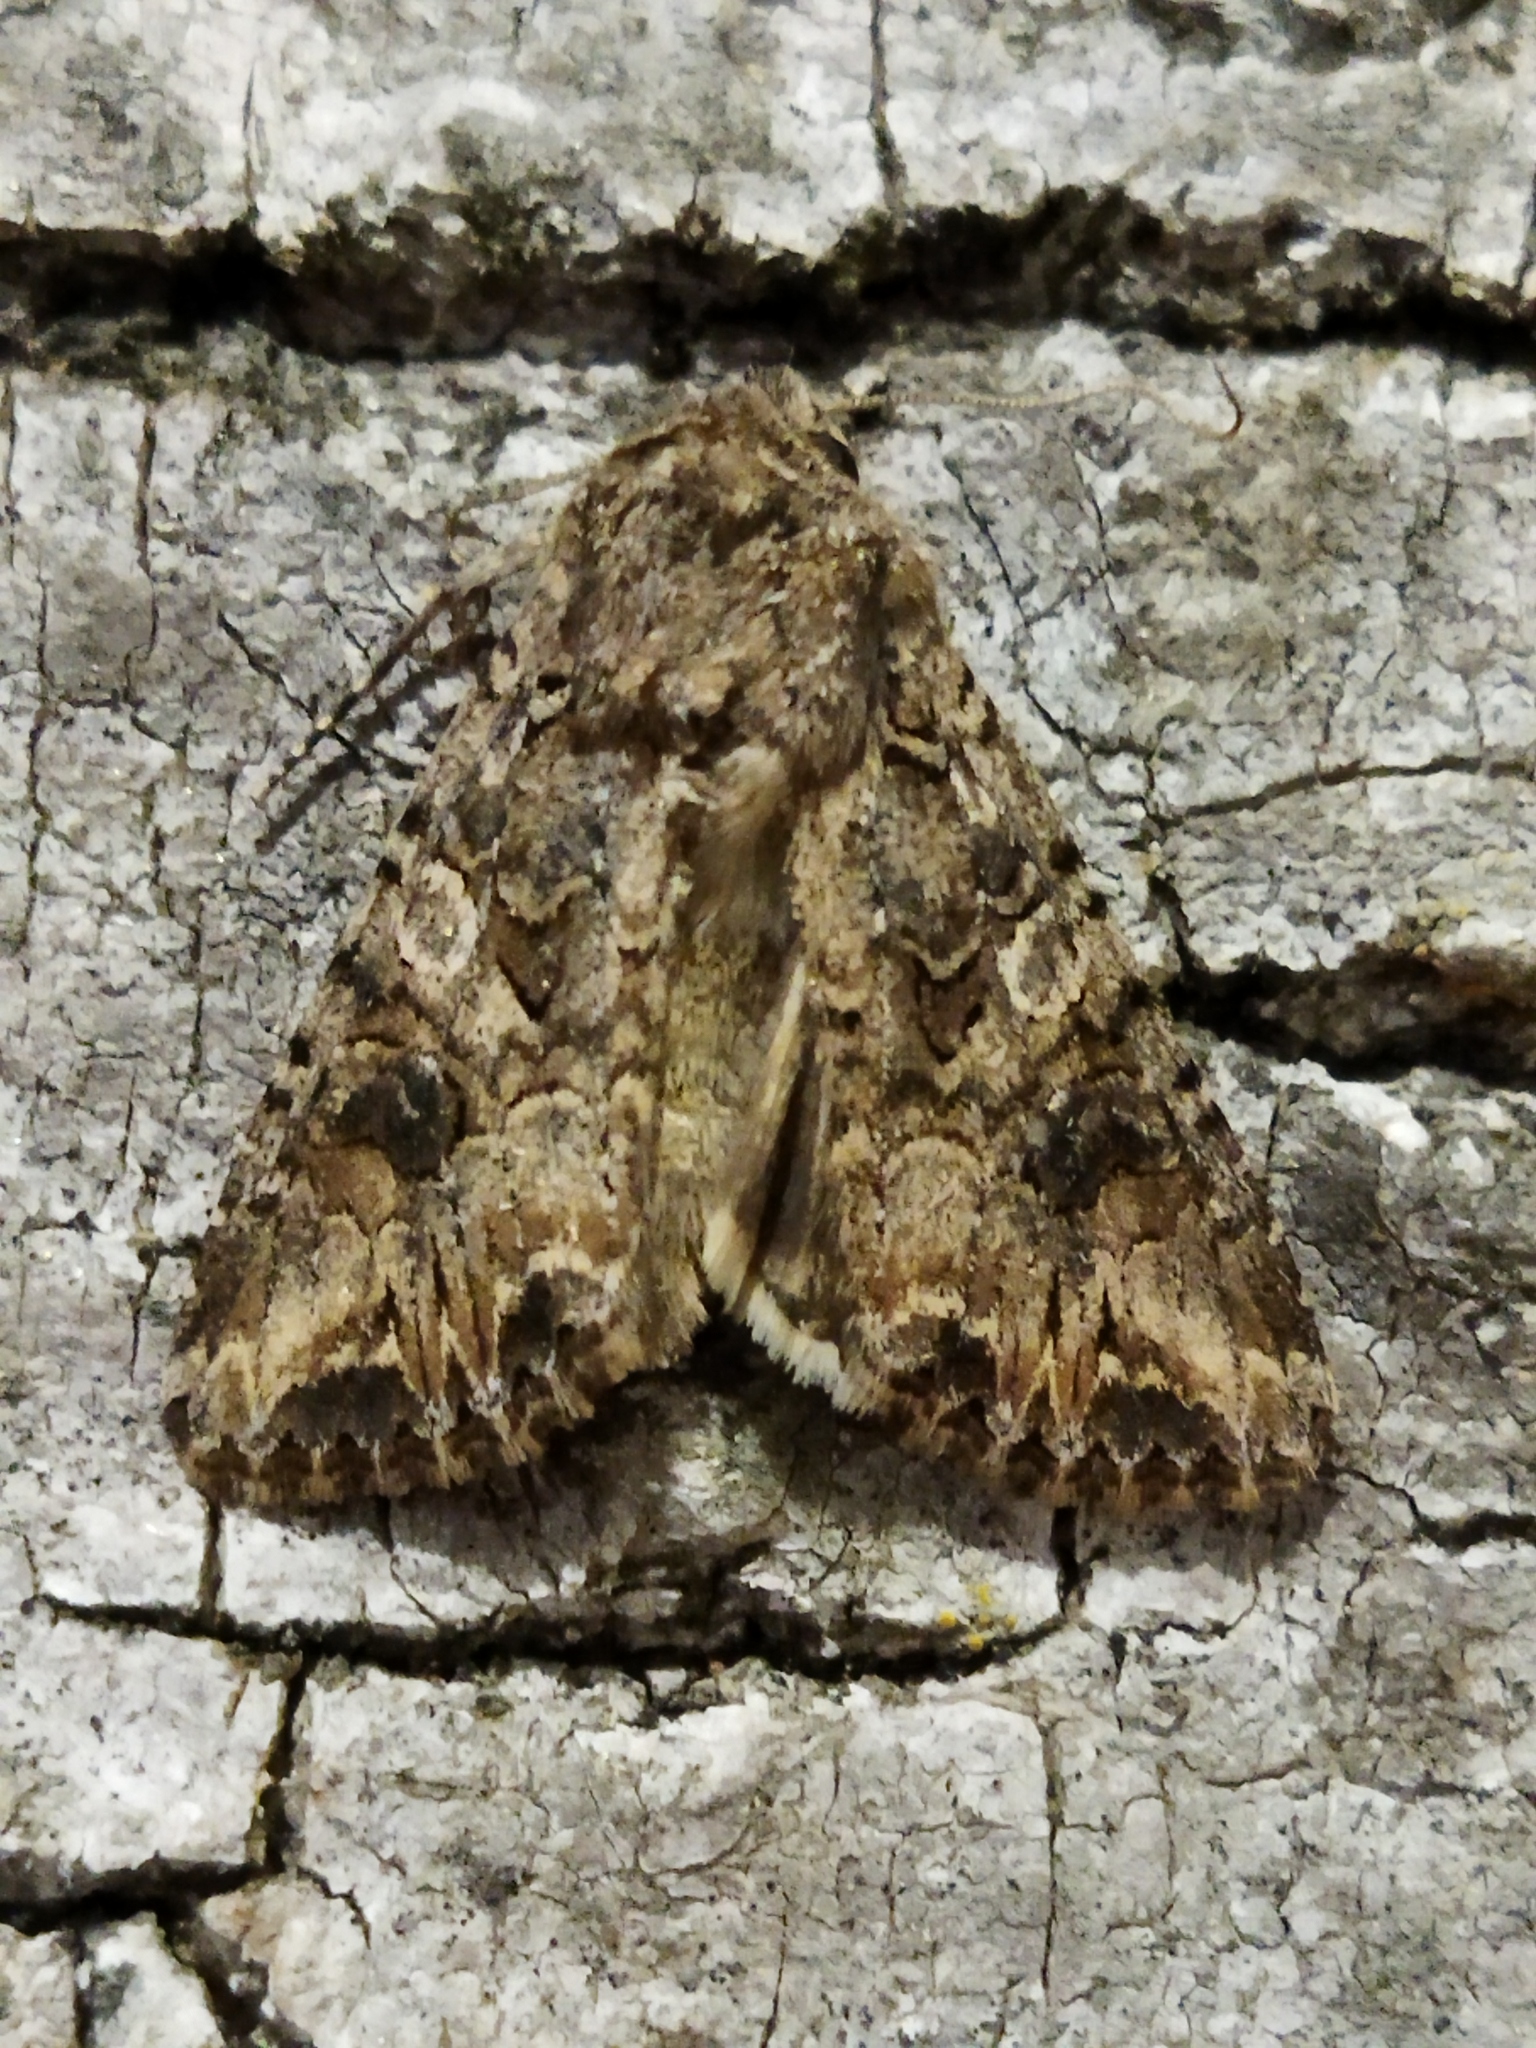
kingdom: Animalia
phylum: Arthropoda
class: Insecta
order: Lepidoptera
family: Noctuidae
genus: Anarta
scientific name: Anarta trifolii
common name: Clover cutworm moth
